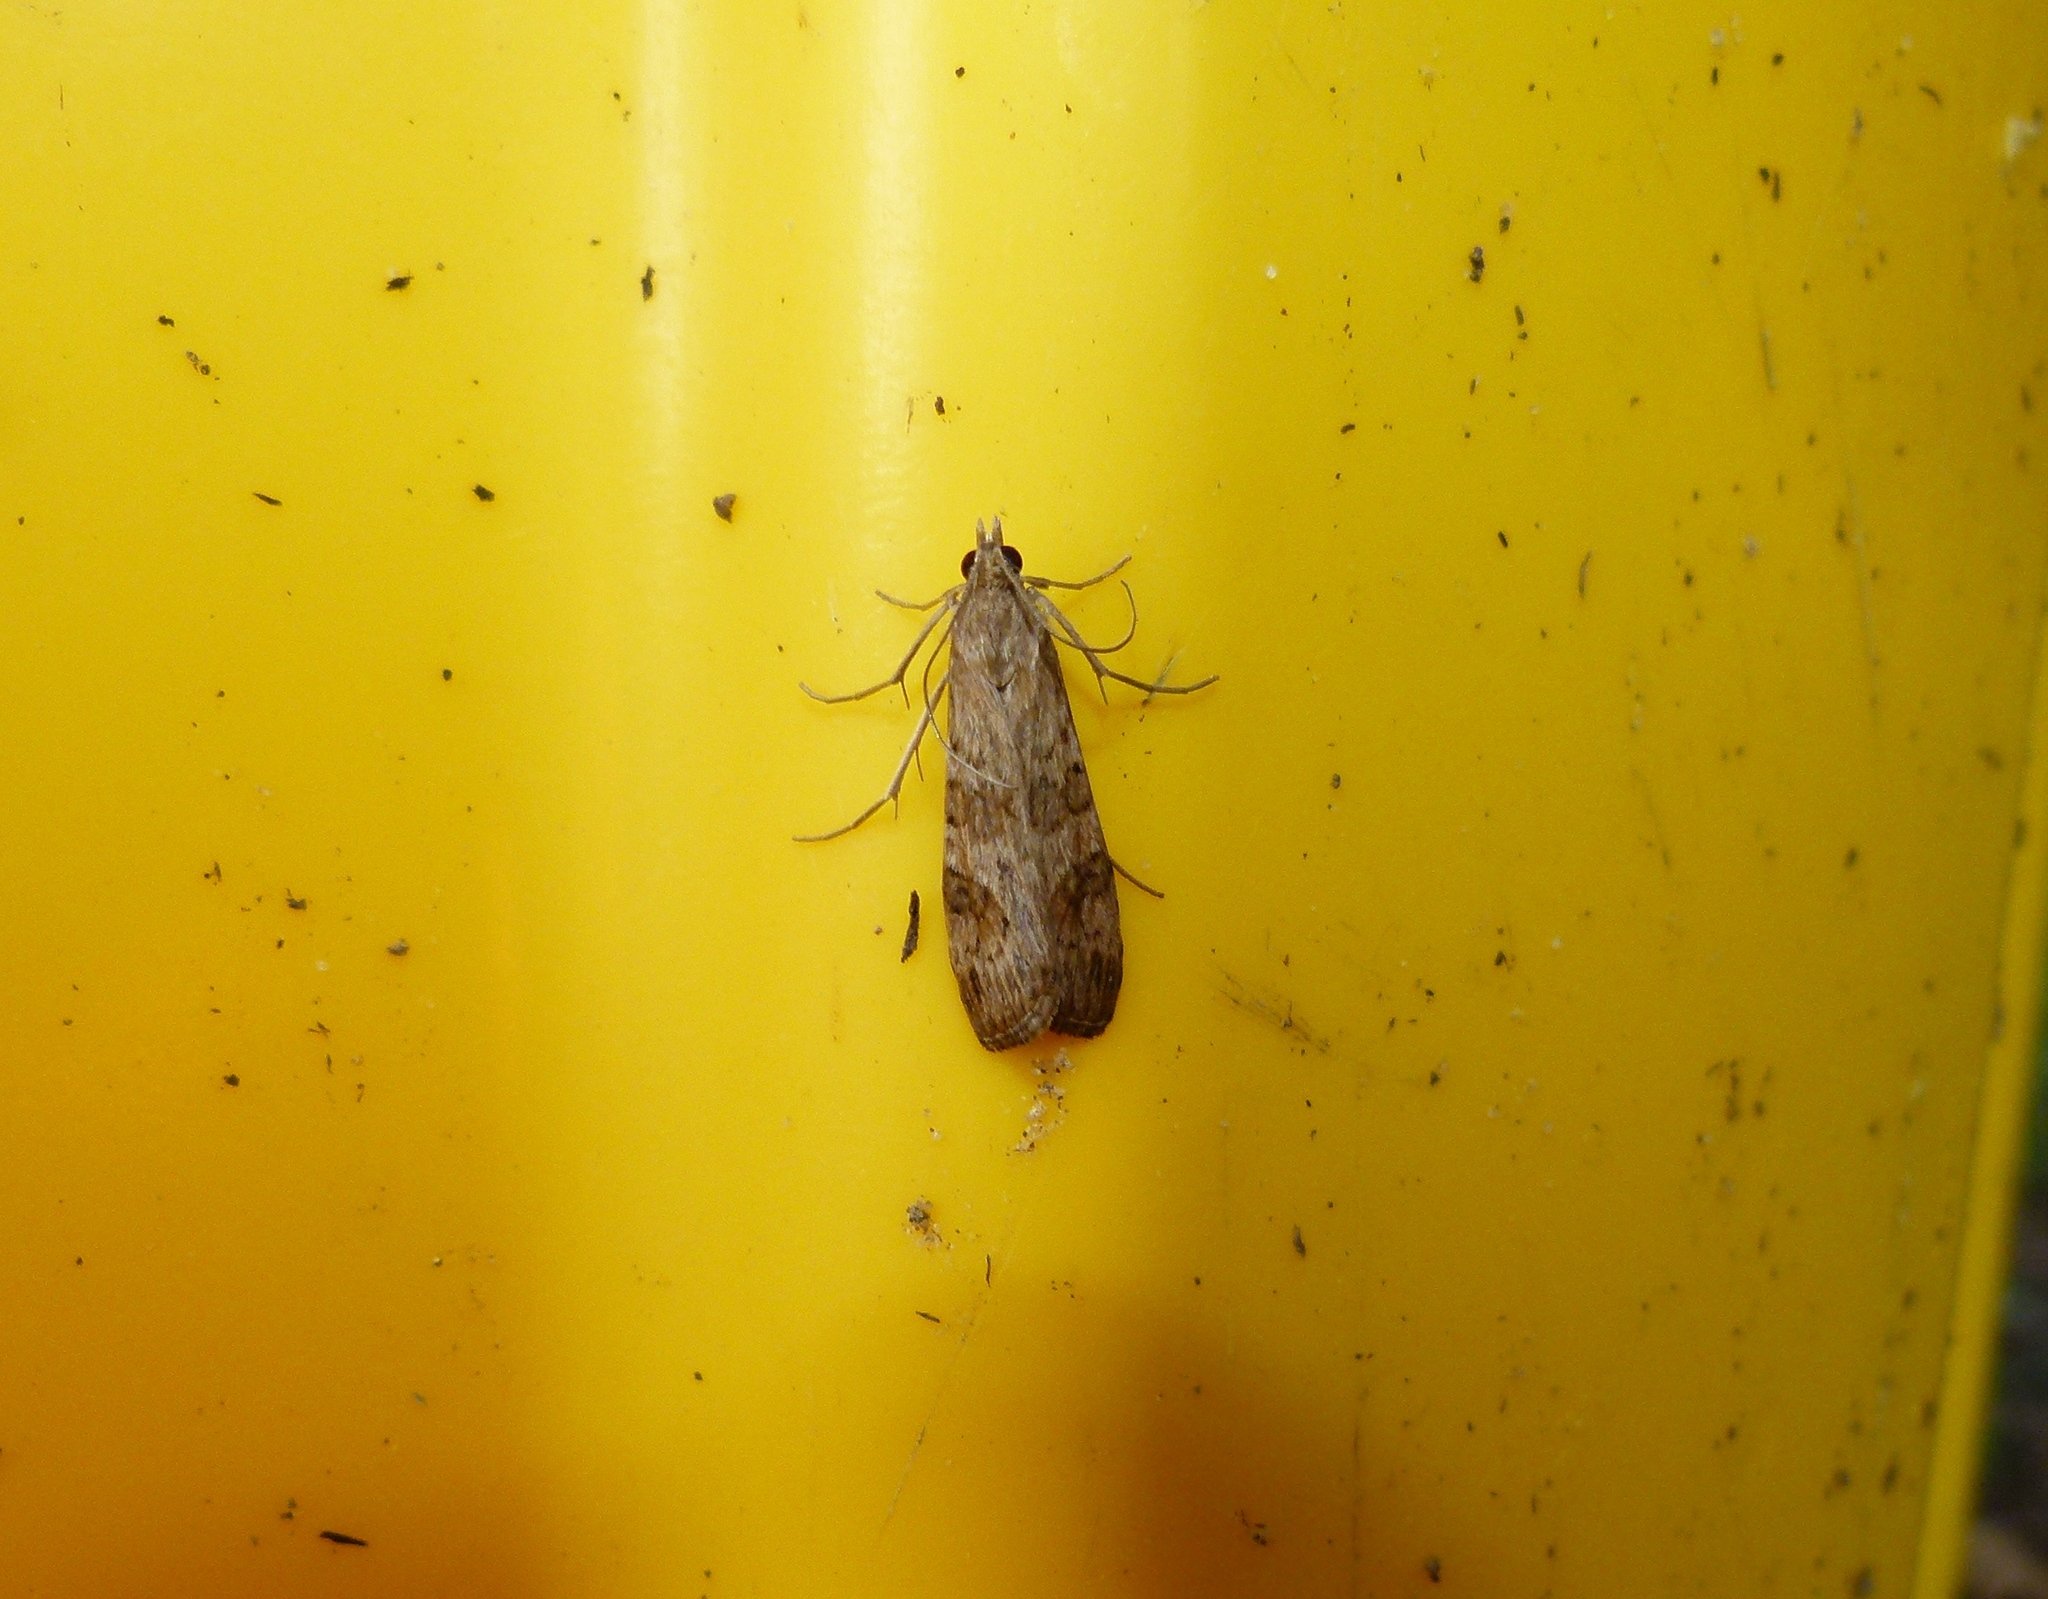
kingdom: Animalia
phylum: Arthropoda
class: Insecta
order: Lepidoptera
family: Crambidae
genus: Nomophila
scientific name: Nomophila nearctica
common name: American rush veneer
